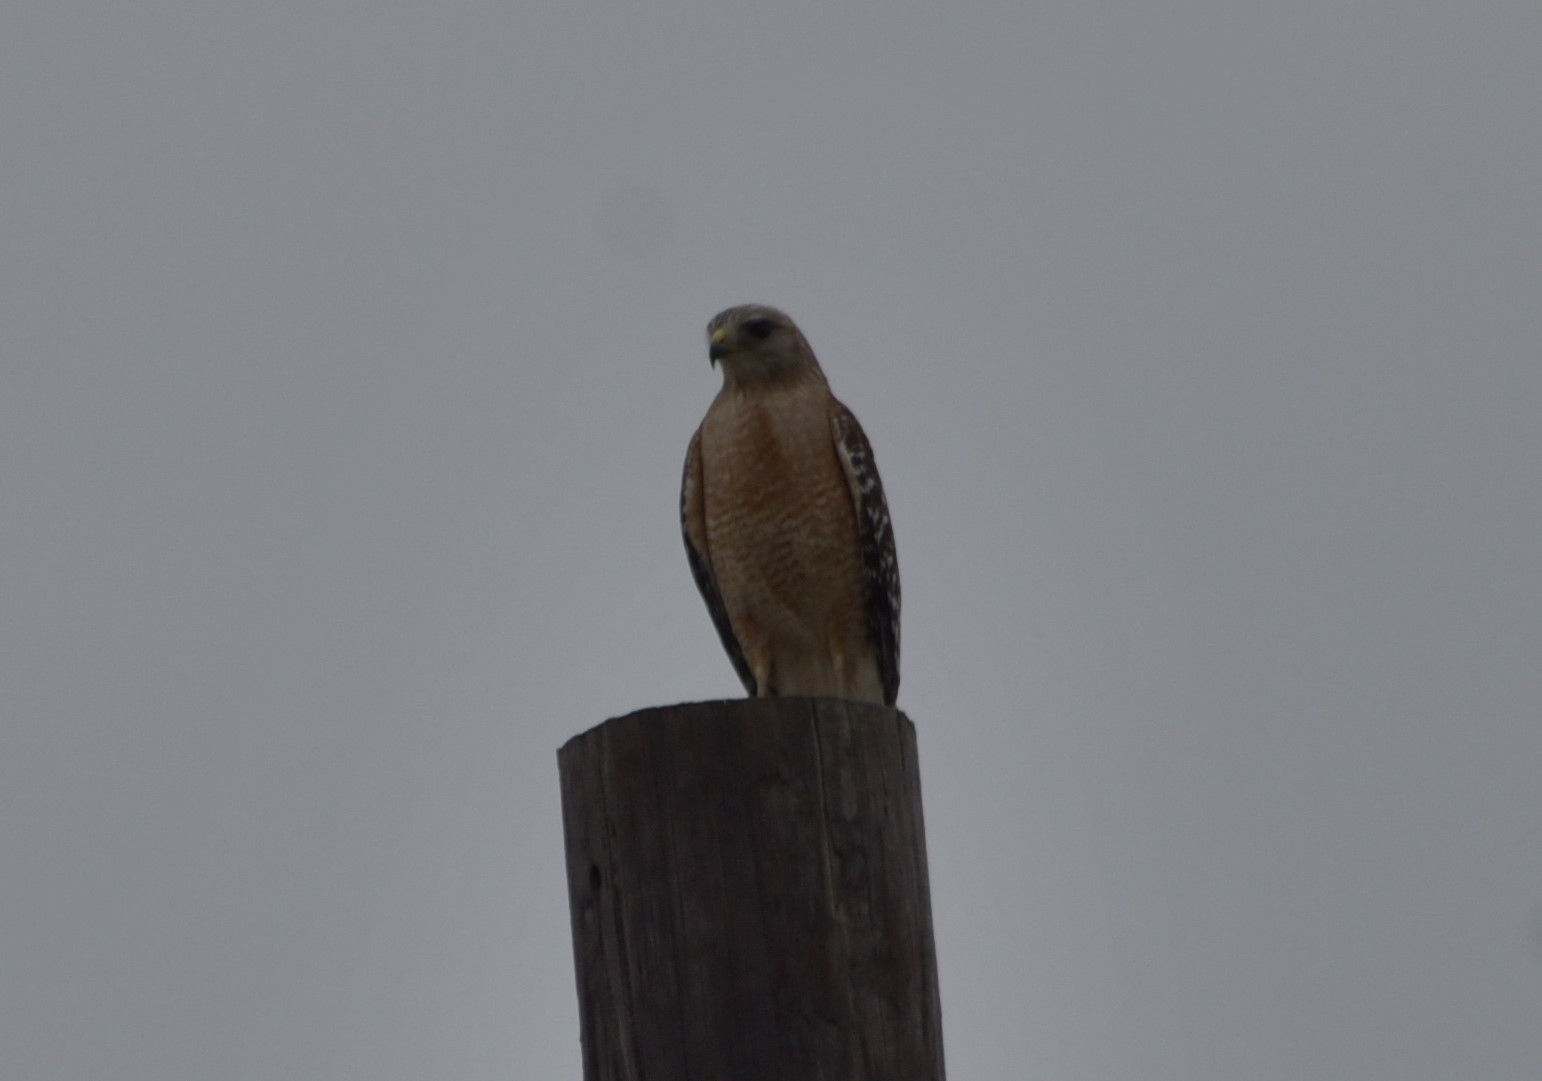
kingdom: Animalia
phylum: Chordata
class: Aves
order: Accipitriformes
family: Accipitridae
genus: Buteo
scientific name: Buteo lineatus
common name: Red-shouldered hawk
